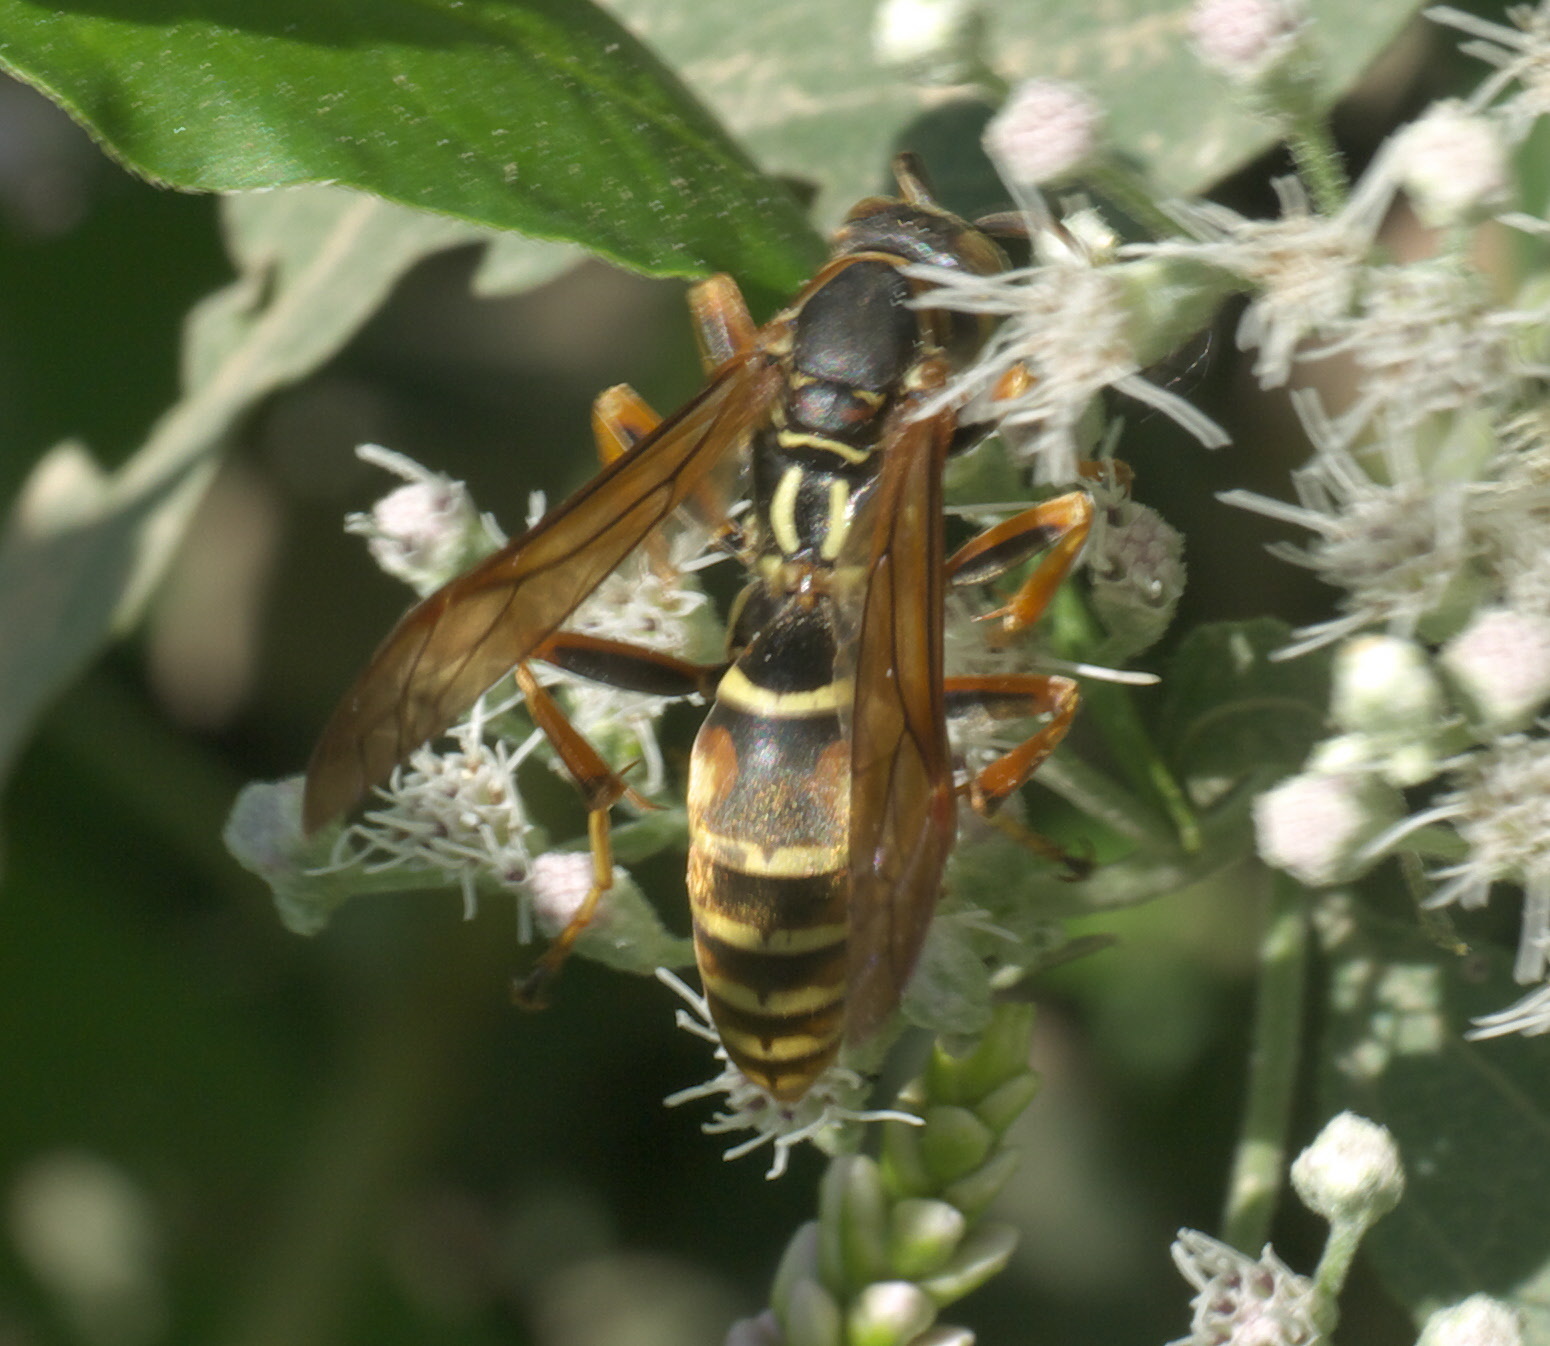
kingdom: Animalia
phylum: Arthropoda
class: Insecta
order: Hymenoptera
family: Eumenidae
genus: Polistes
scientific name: Polistes fuscatus
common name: Dark paper wasp
